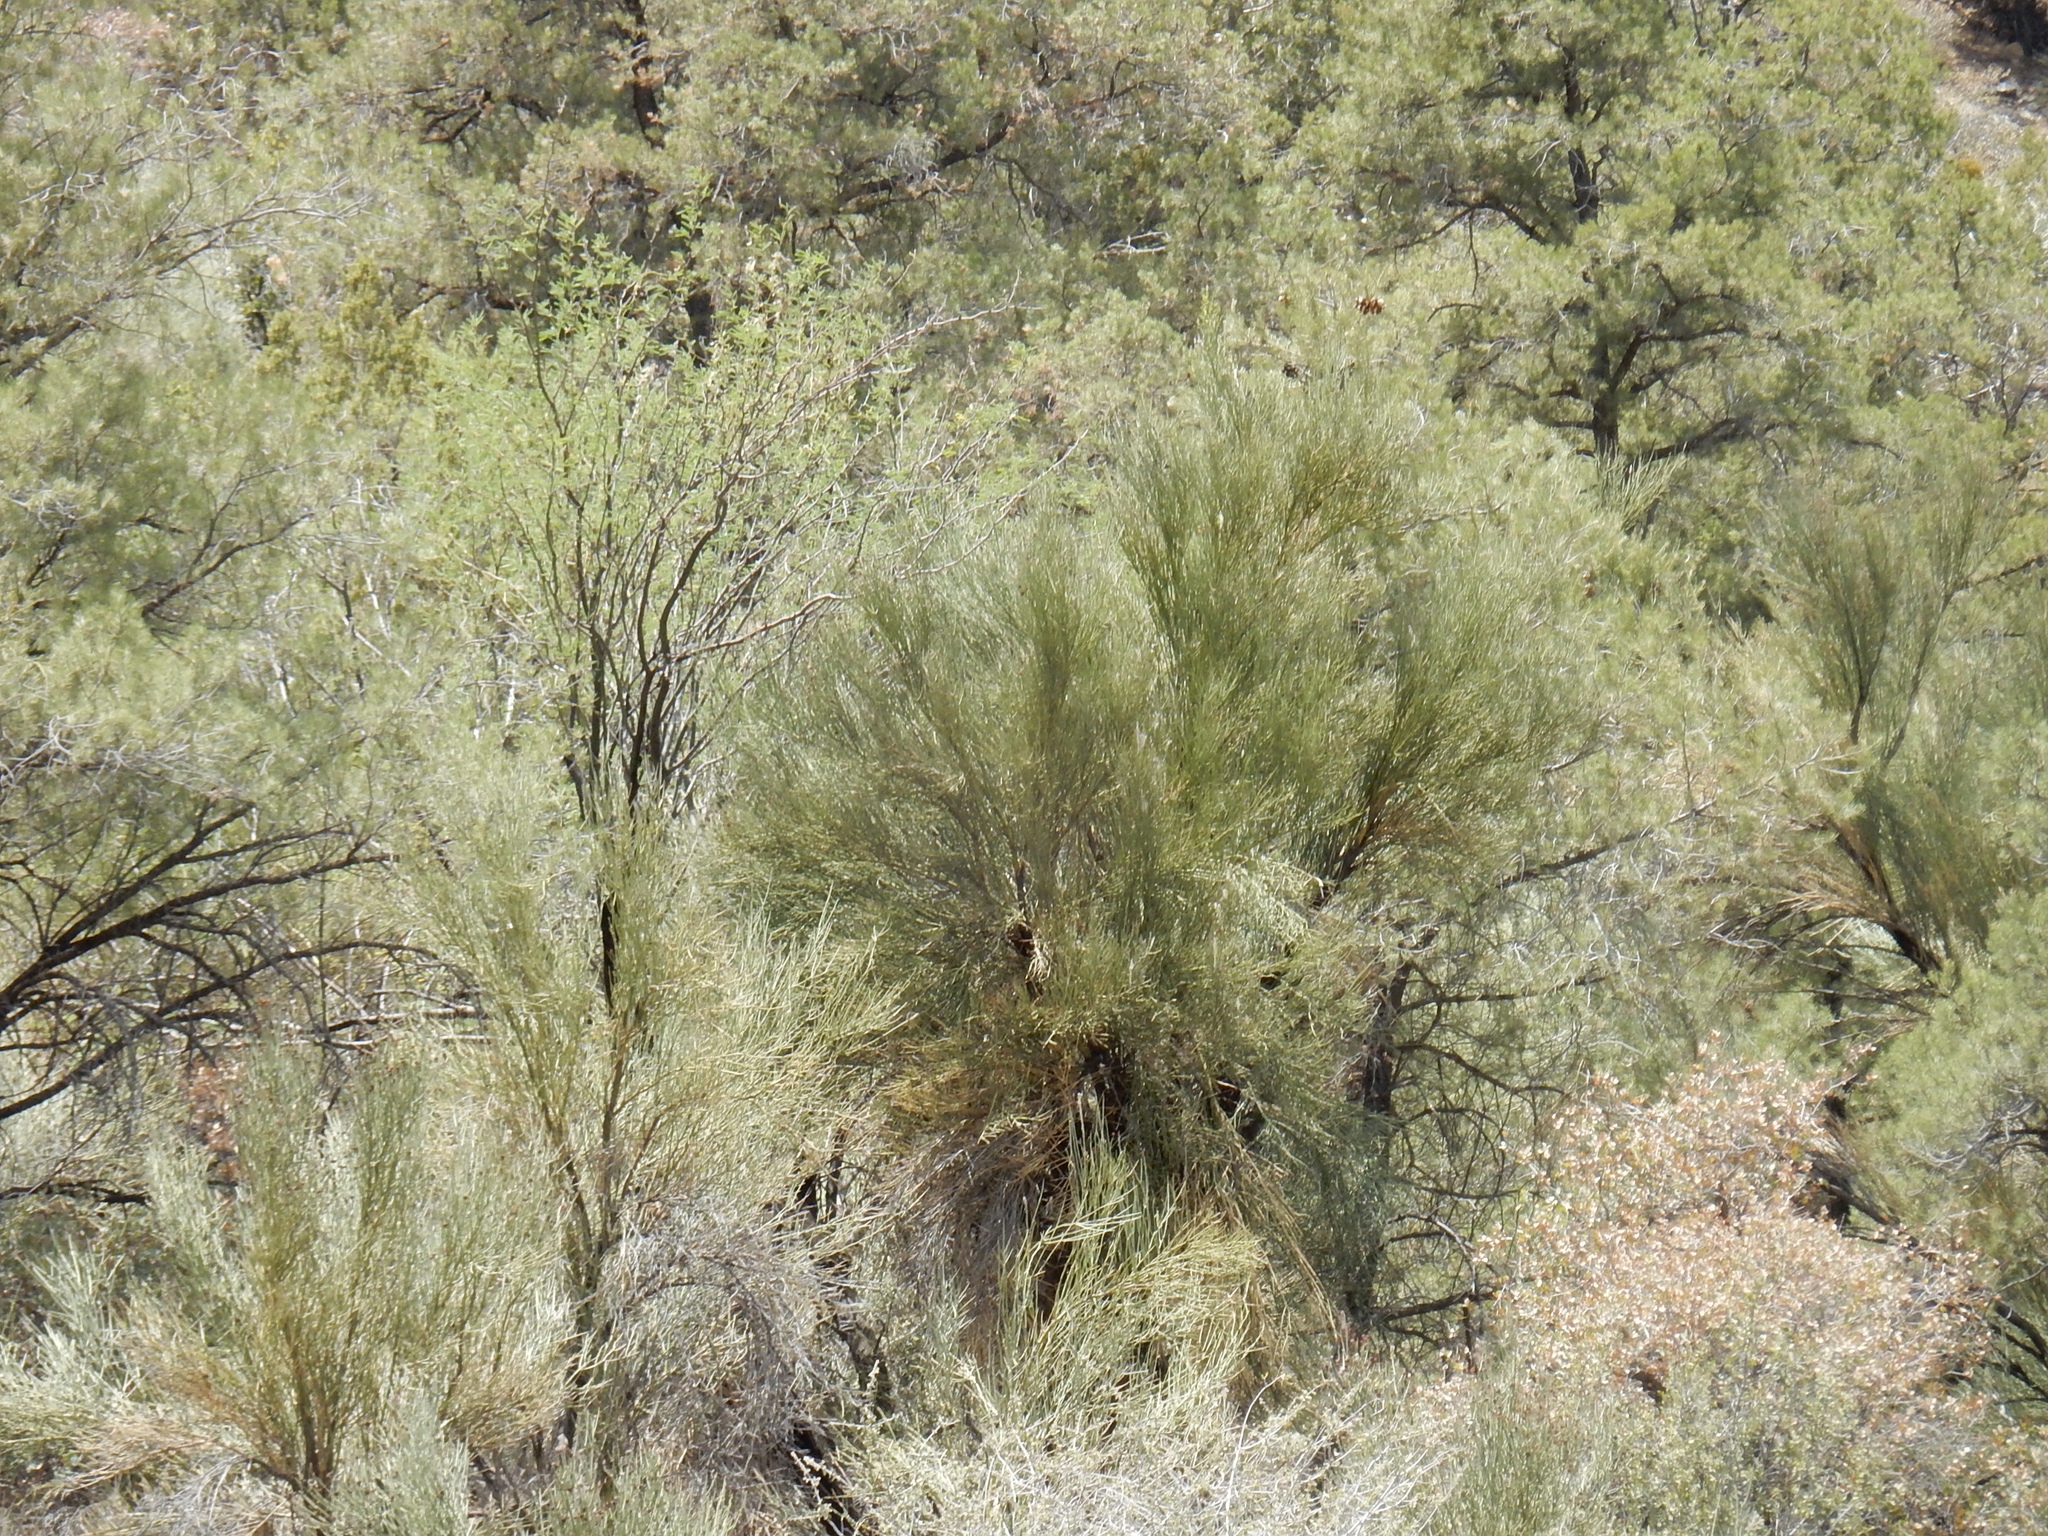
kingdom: Plantae
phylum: Tracheophyta
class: Magnoliopsida
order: Celastrales
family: Celastraceae
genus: Canotia
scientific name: Canotia holacantha
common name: Crucifixion thorns
